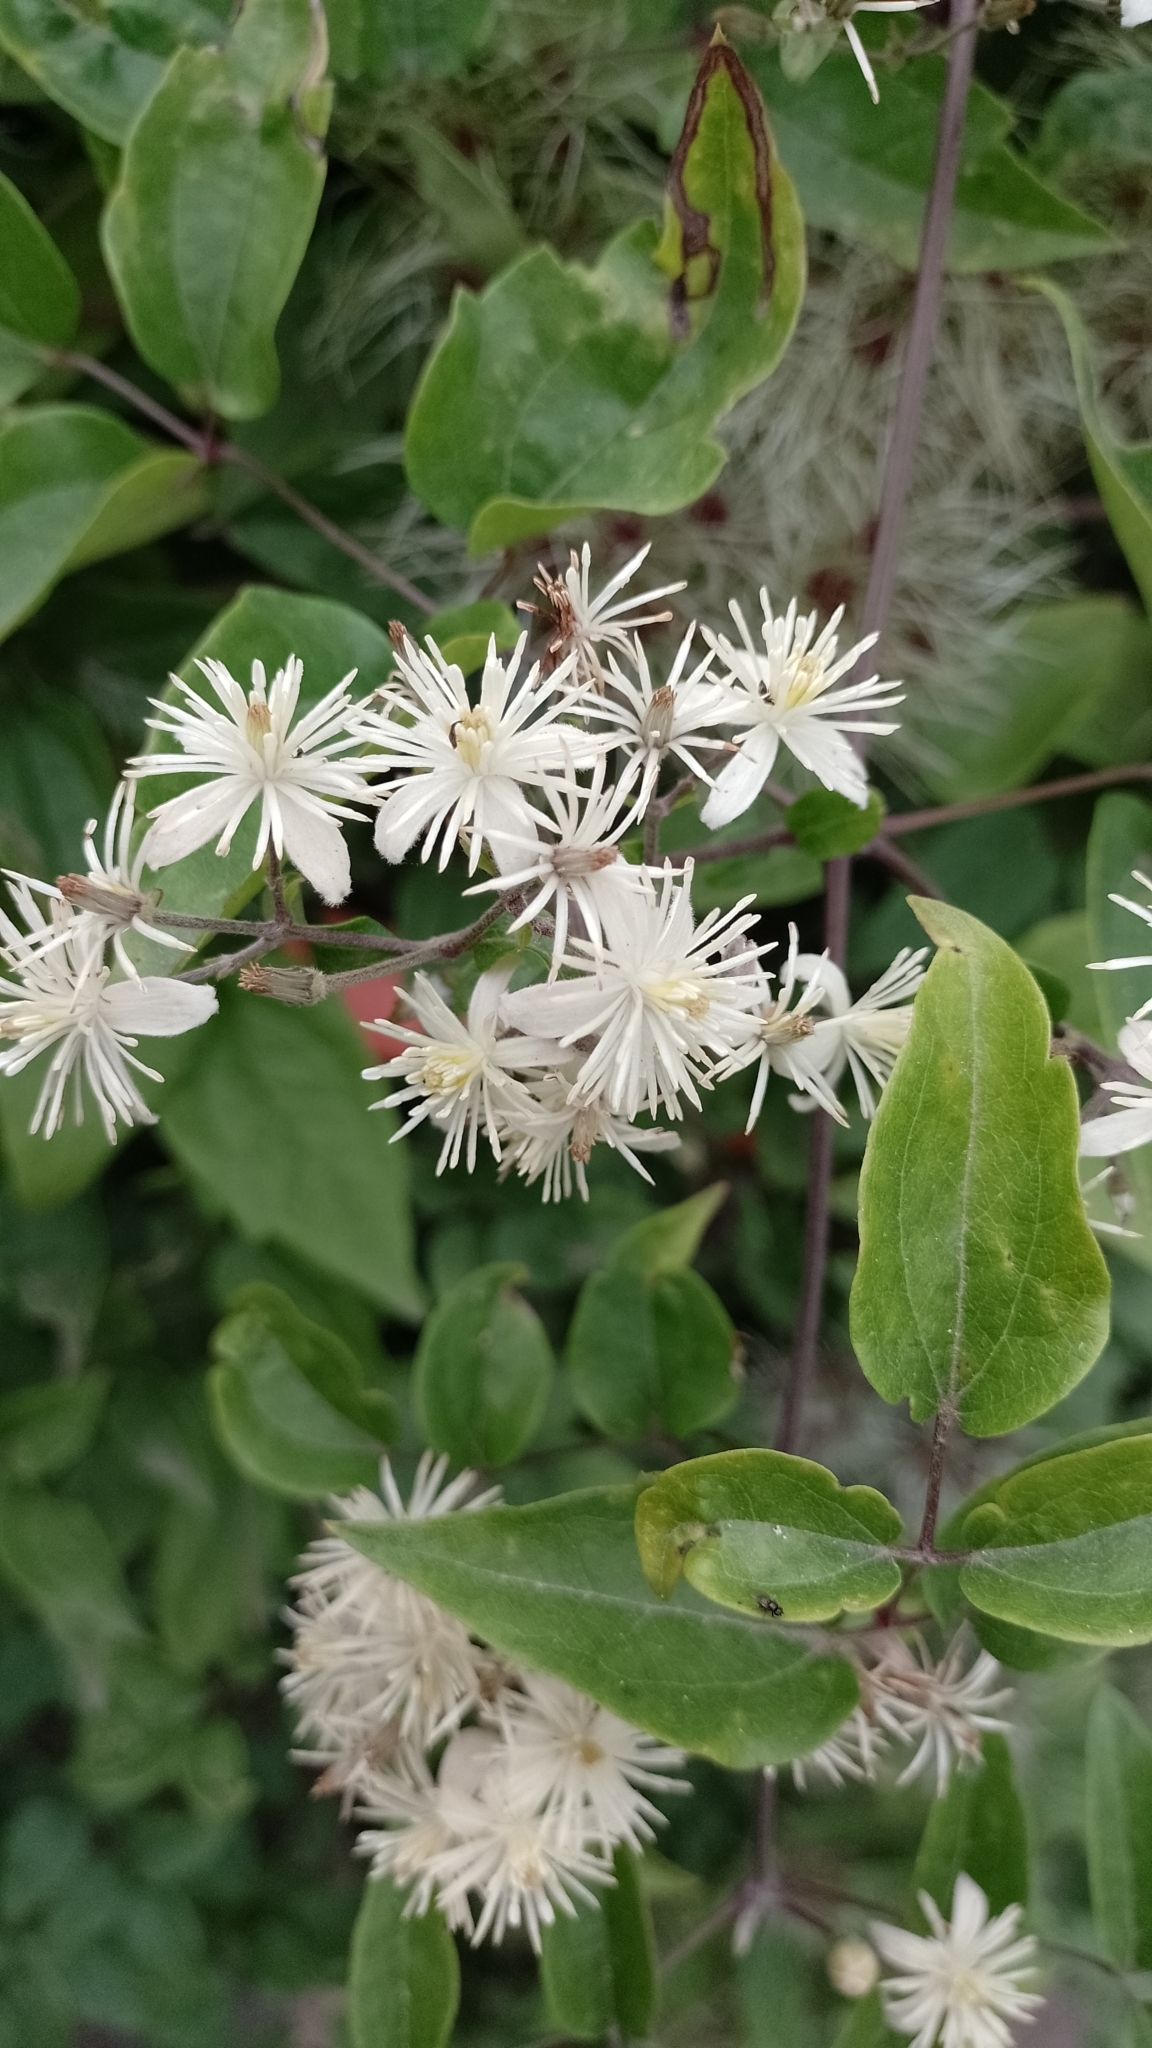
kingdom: Plantae
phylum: Tracheophyta
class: Magnoliopsida
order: Ranunculales
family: Ranunculaceae
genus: Clematis
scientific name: Clematis vitalba
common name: Evergreen clematis
